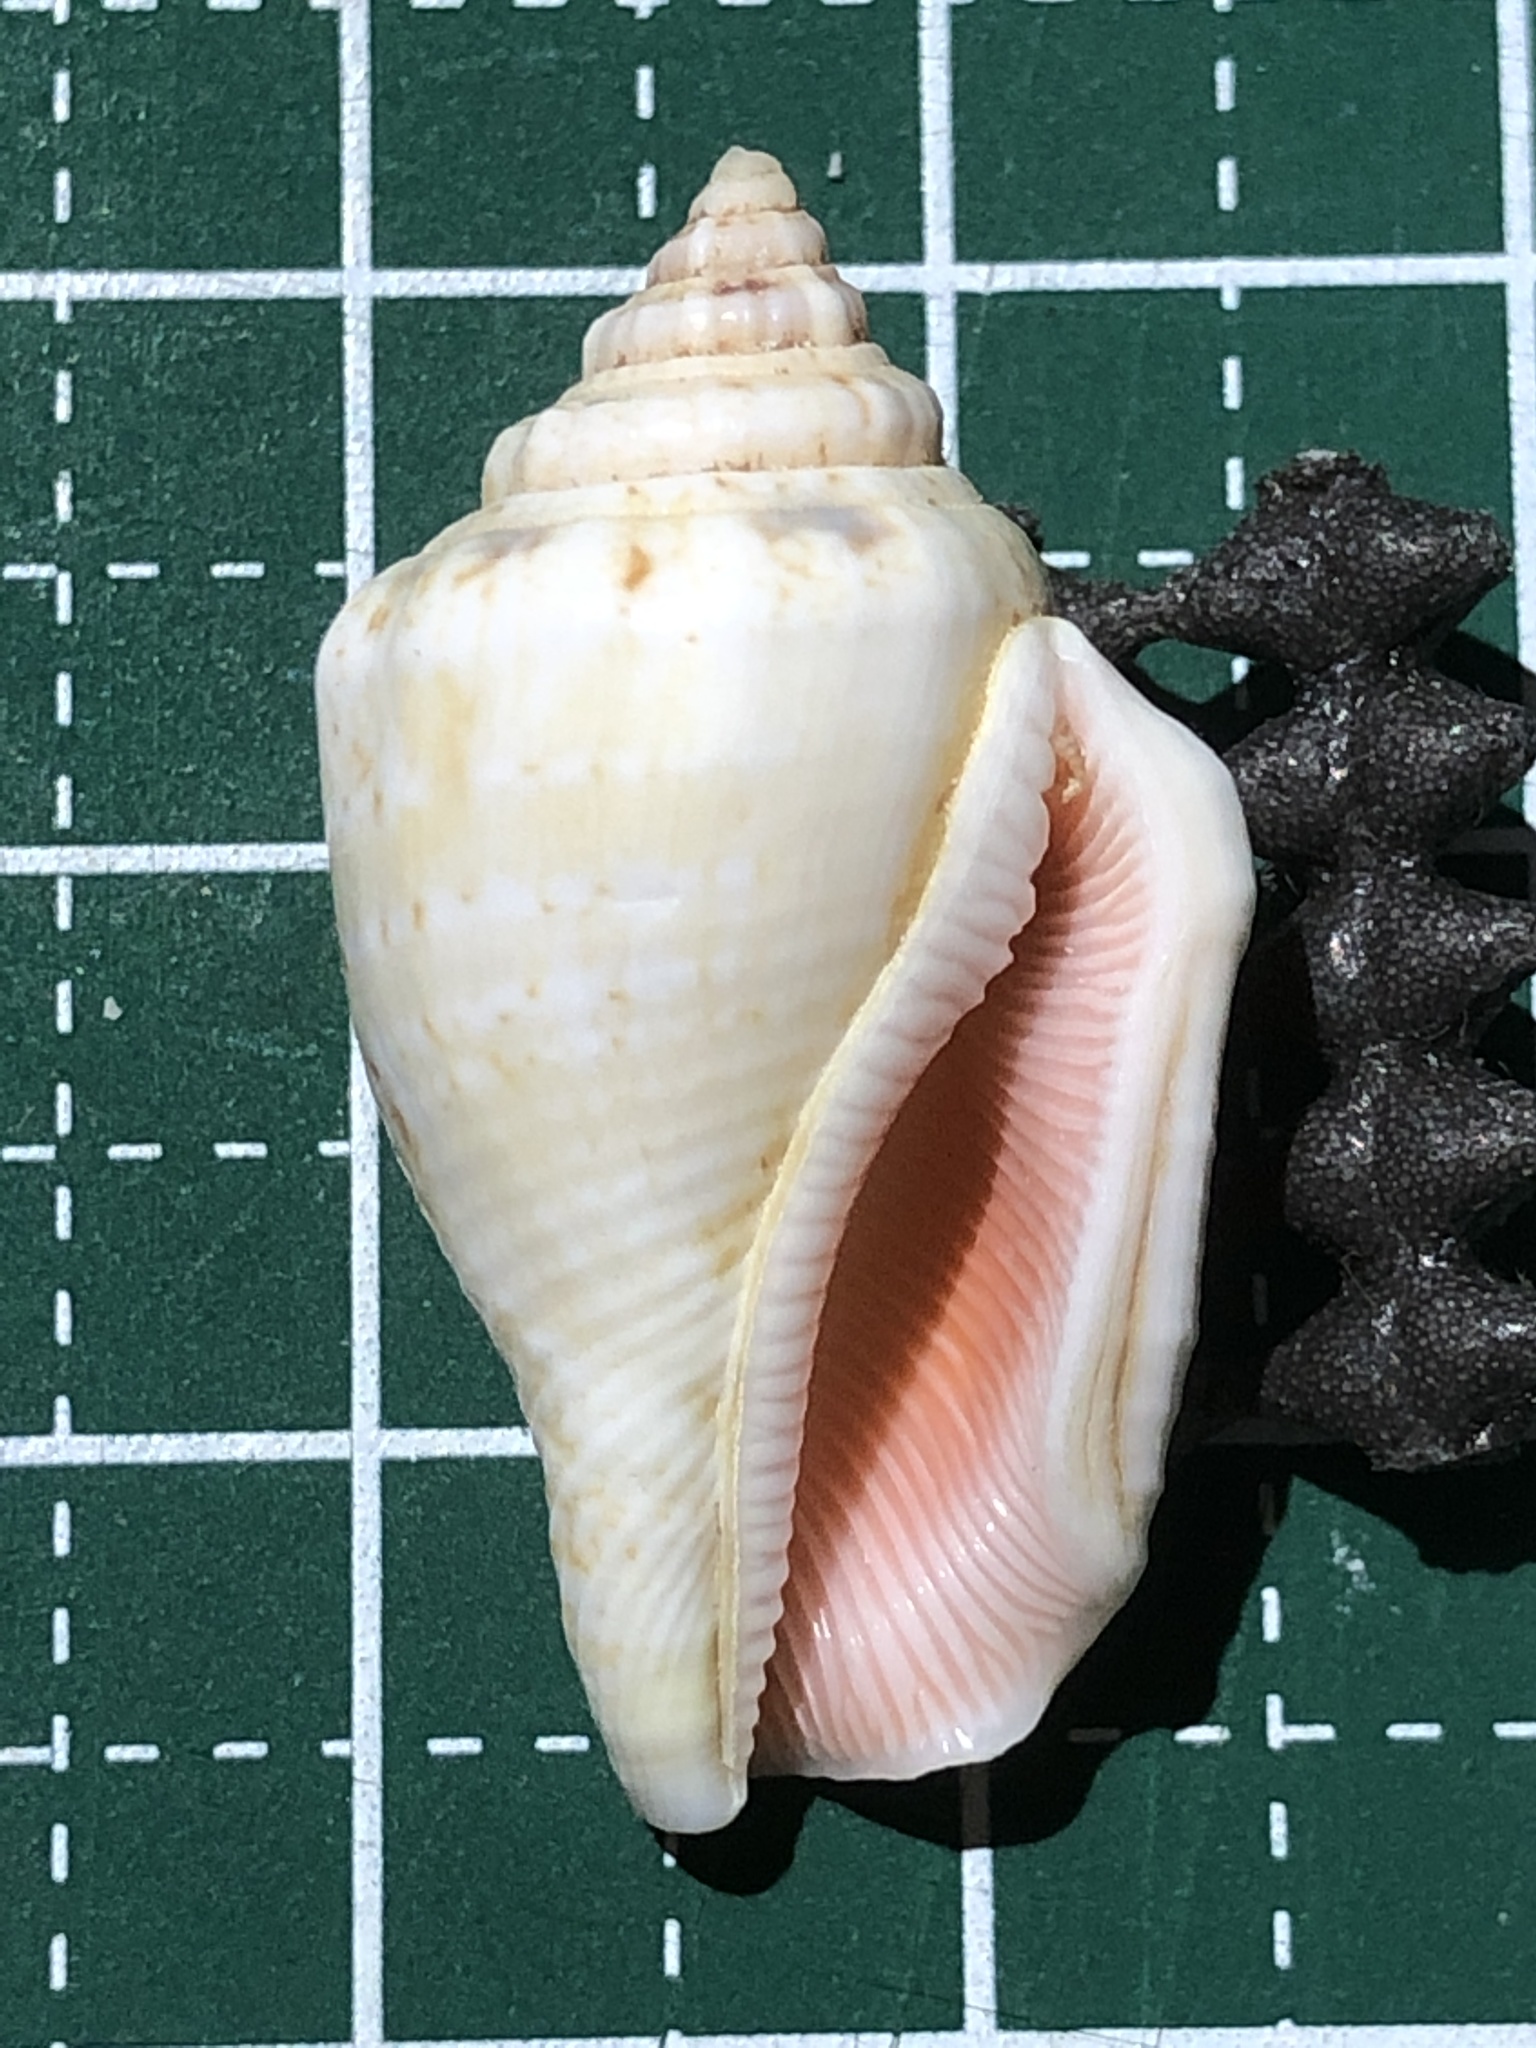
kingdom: Animalia
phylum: Mollusca
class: Gastropoda
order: Littorinimorpha
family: Strombidae
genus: Canarium
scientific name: Canarium mutabile
